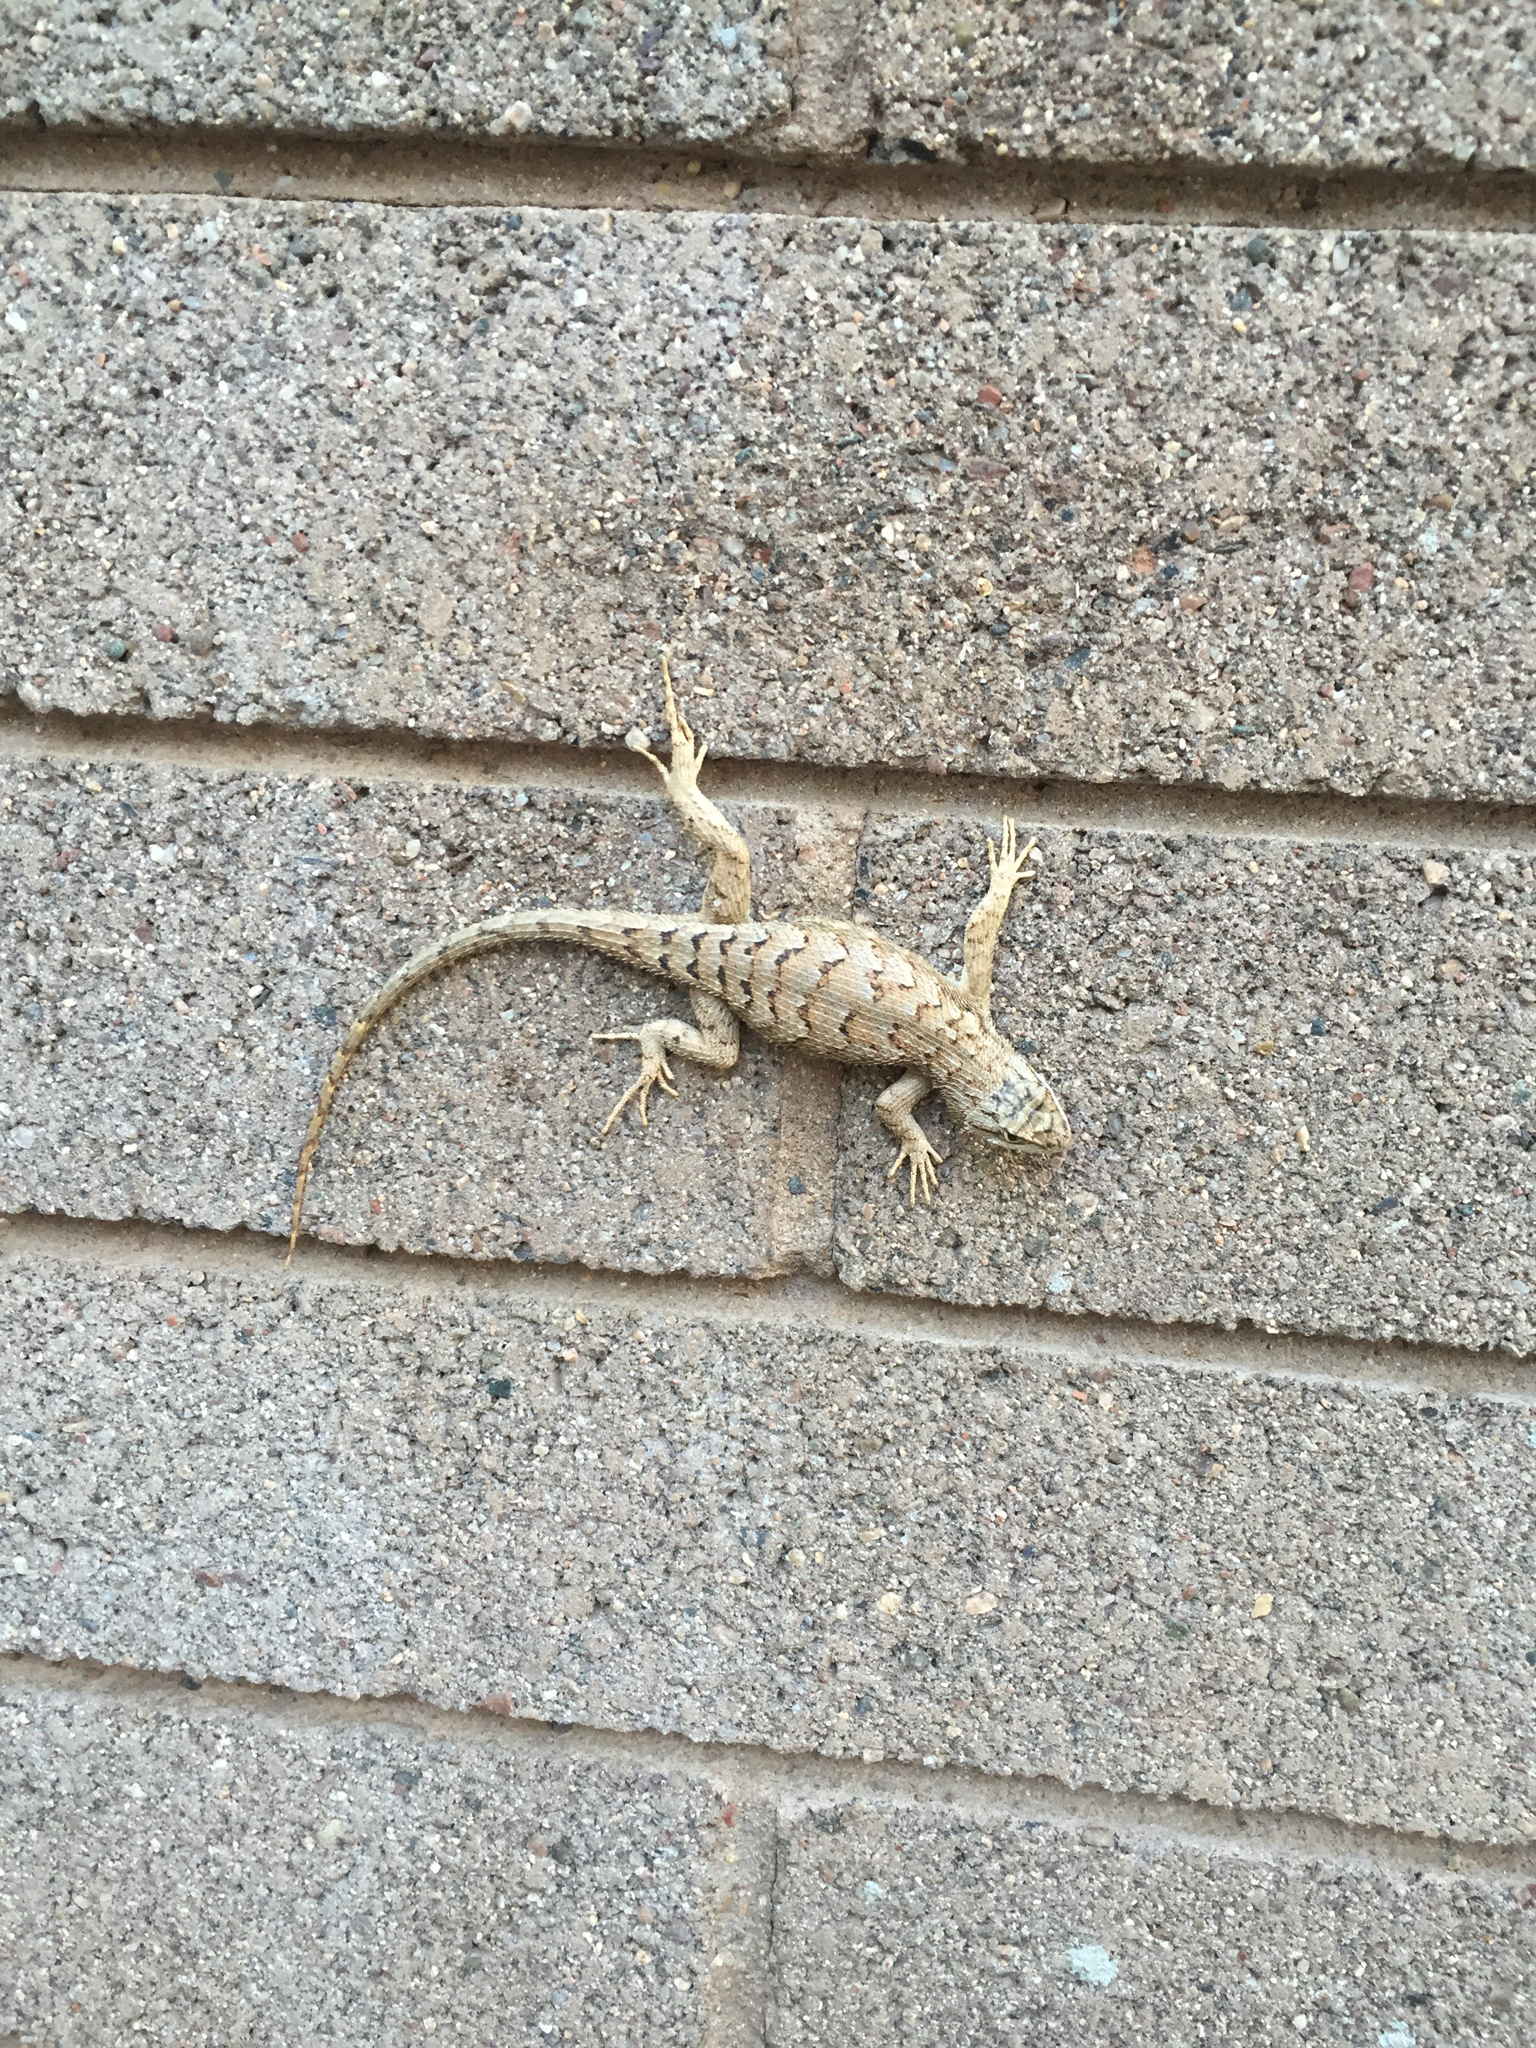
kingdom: Animalia
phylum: Chordata
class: Squamata
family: Phrynosomatidae
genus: Sceloporus
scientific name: Sceloporus tristichus
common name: Plateau fence lizard
